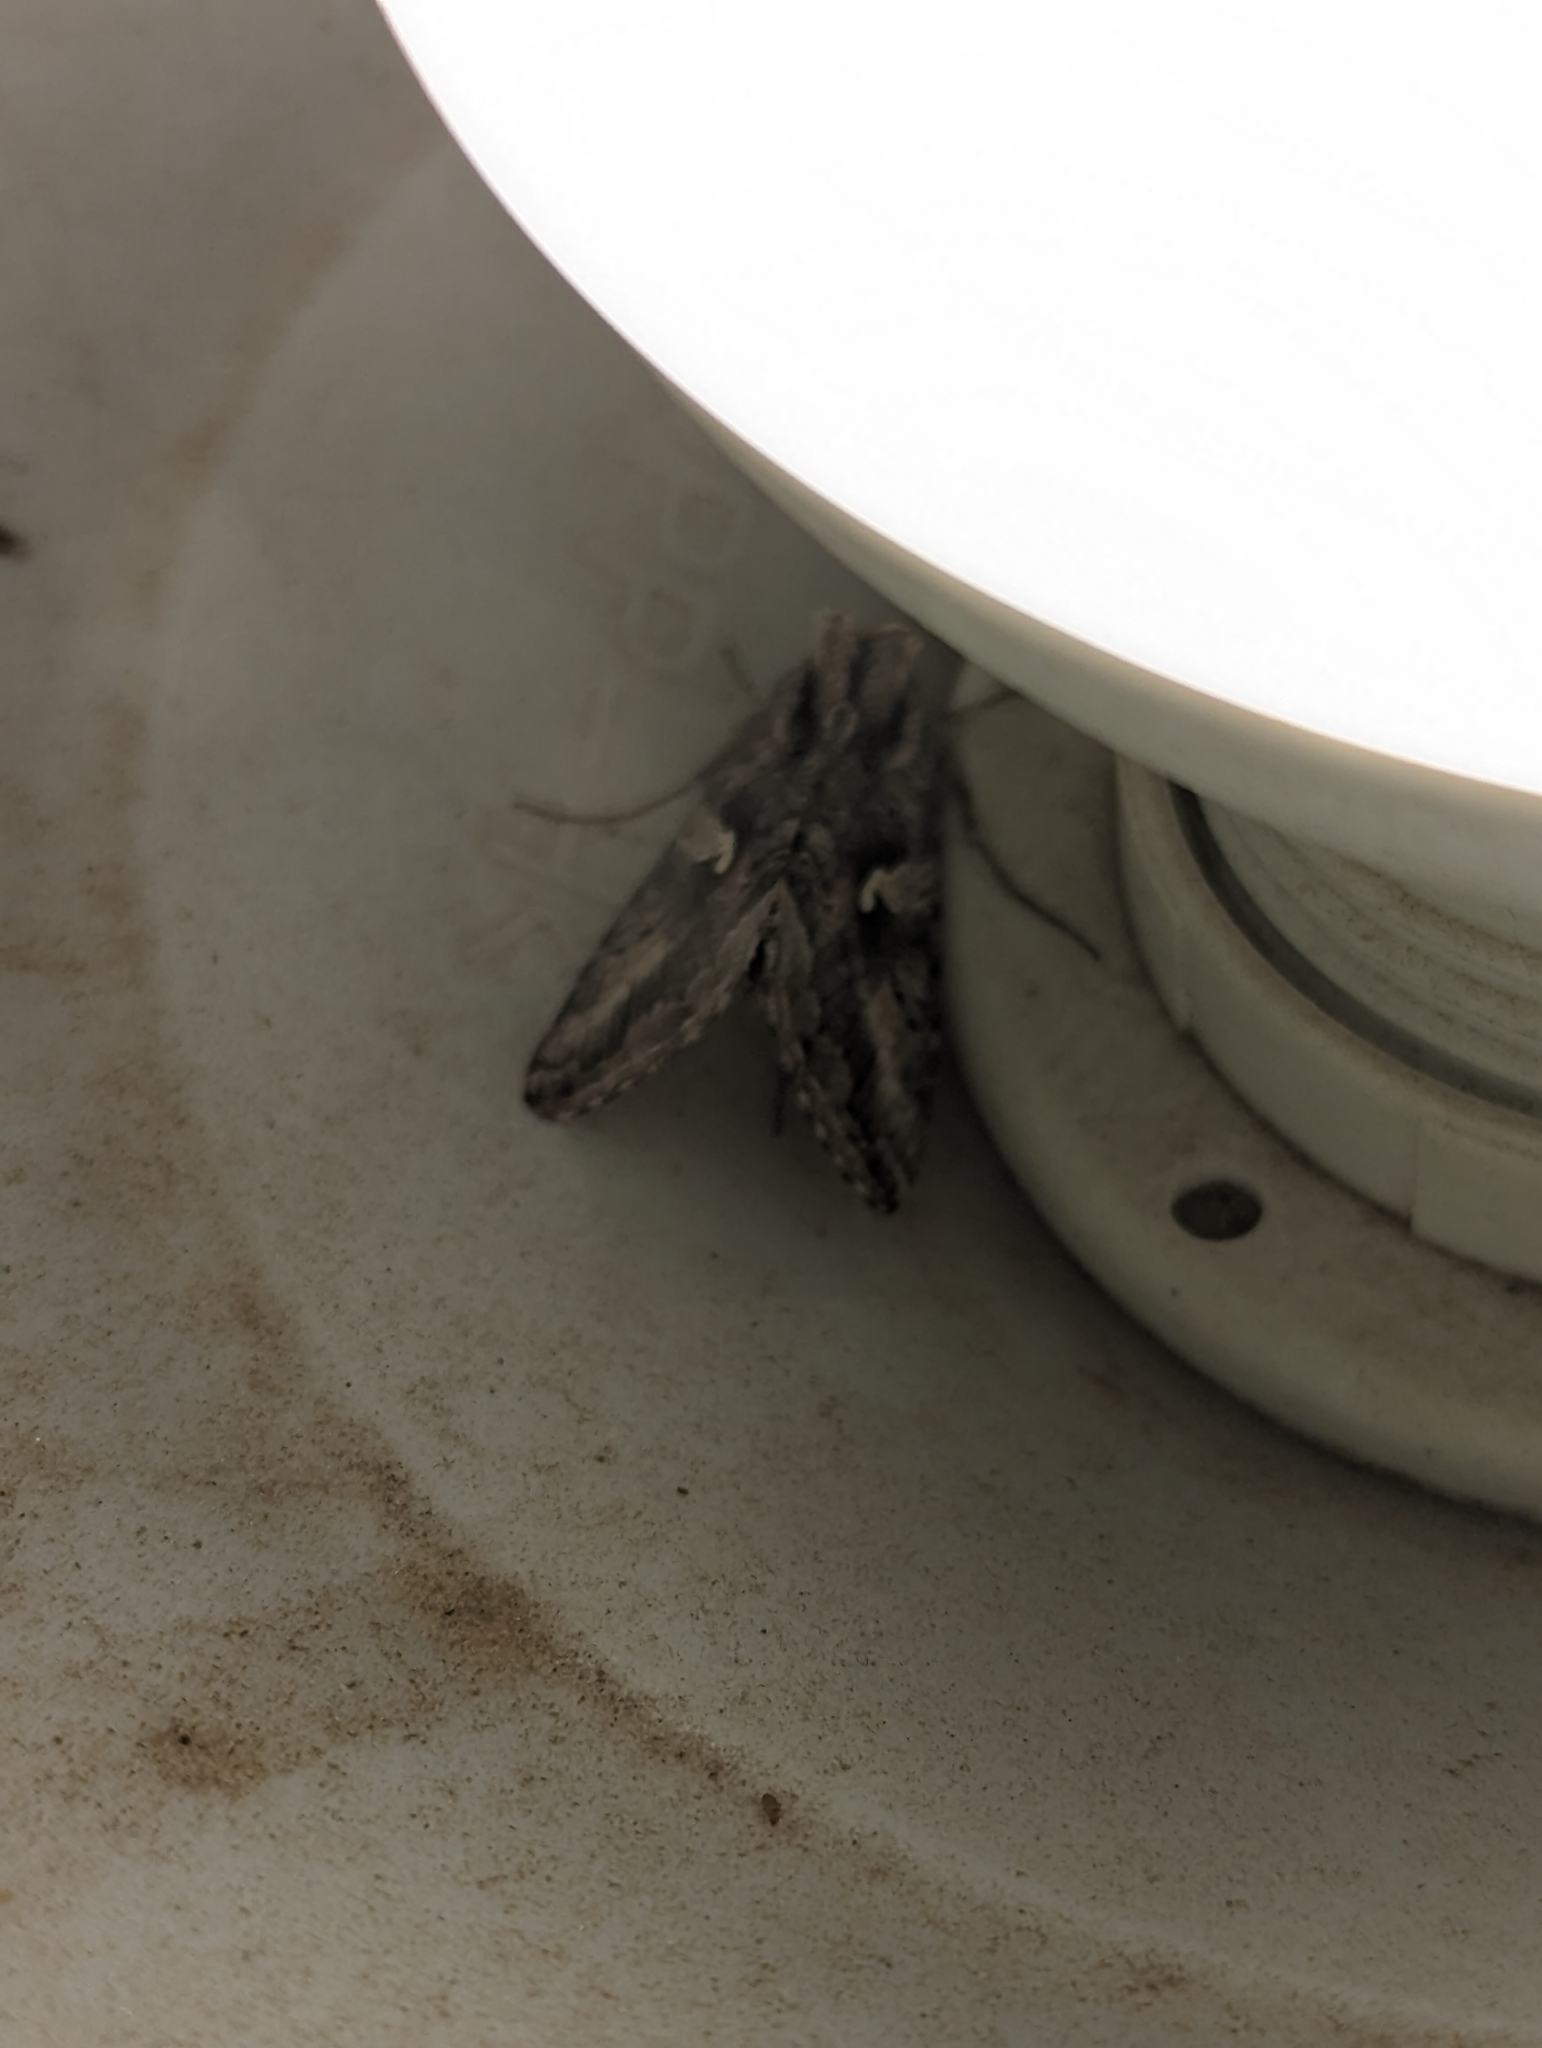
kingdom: Animalia
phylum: Arthropoda
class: Insecta
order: Lepidoptera
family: Noctuidae
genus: Autographa
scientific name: Autographa californica
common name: Alfalfa looper
